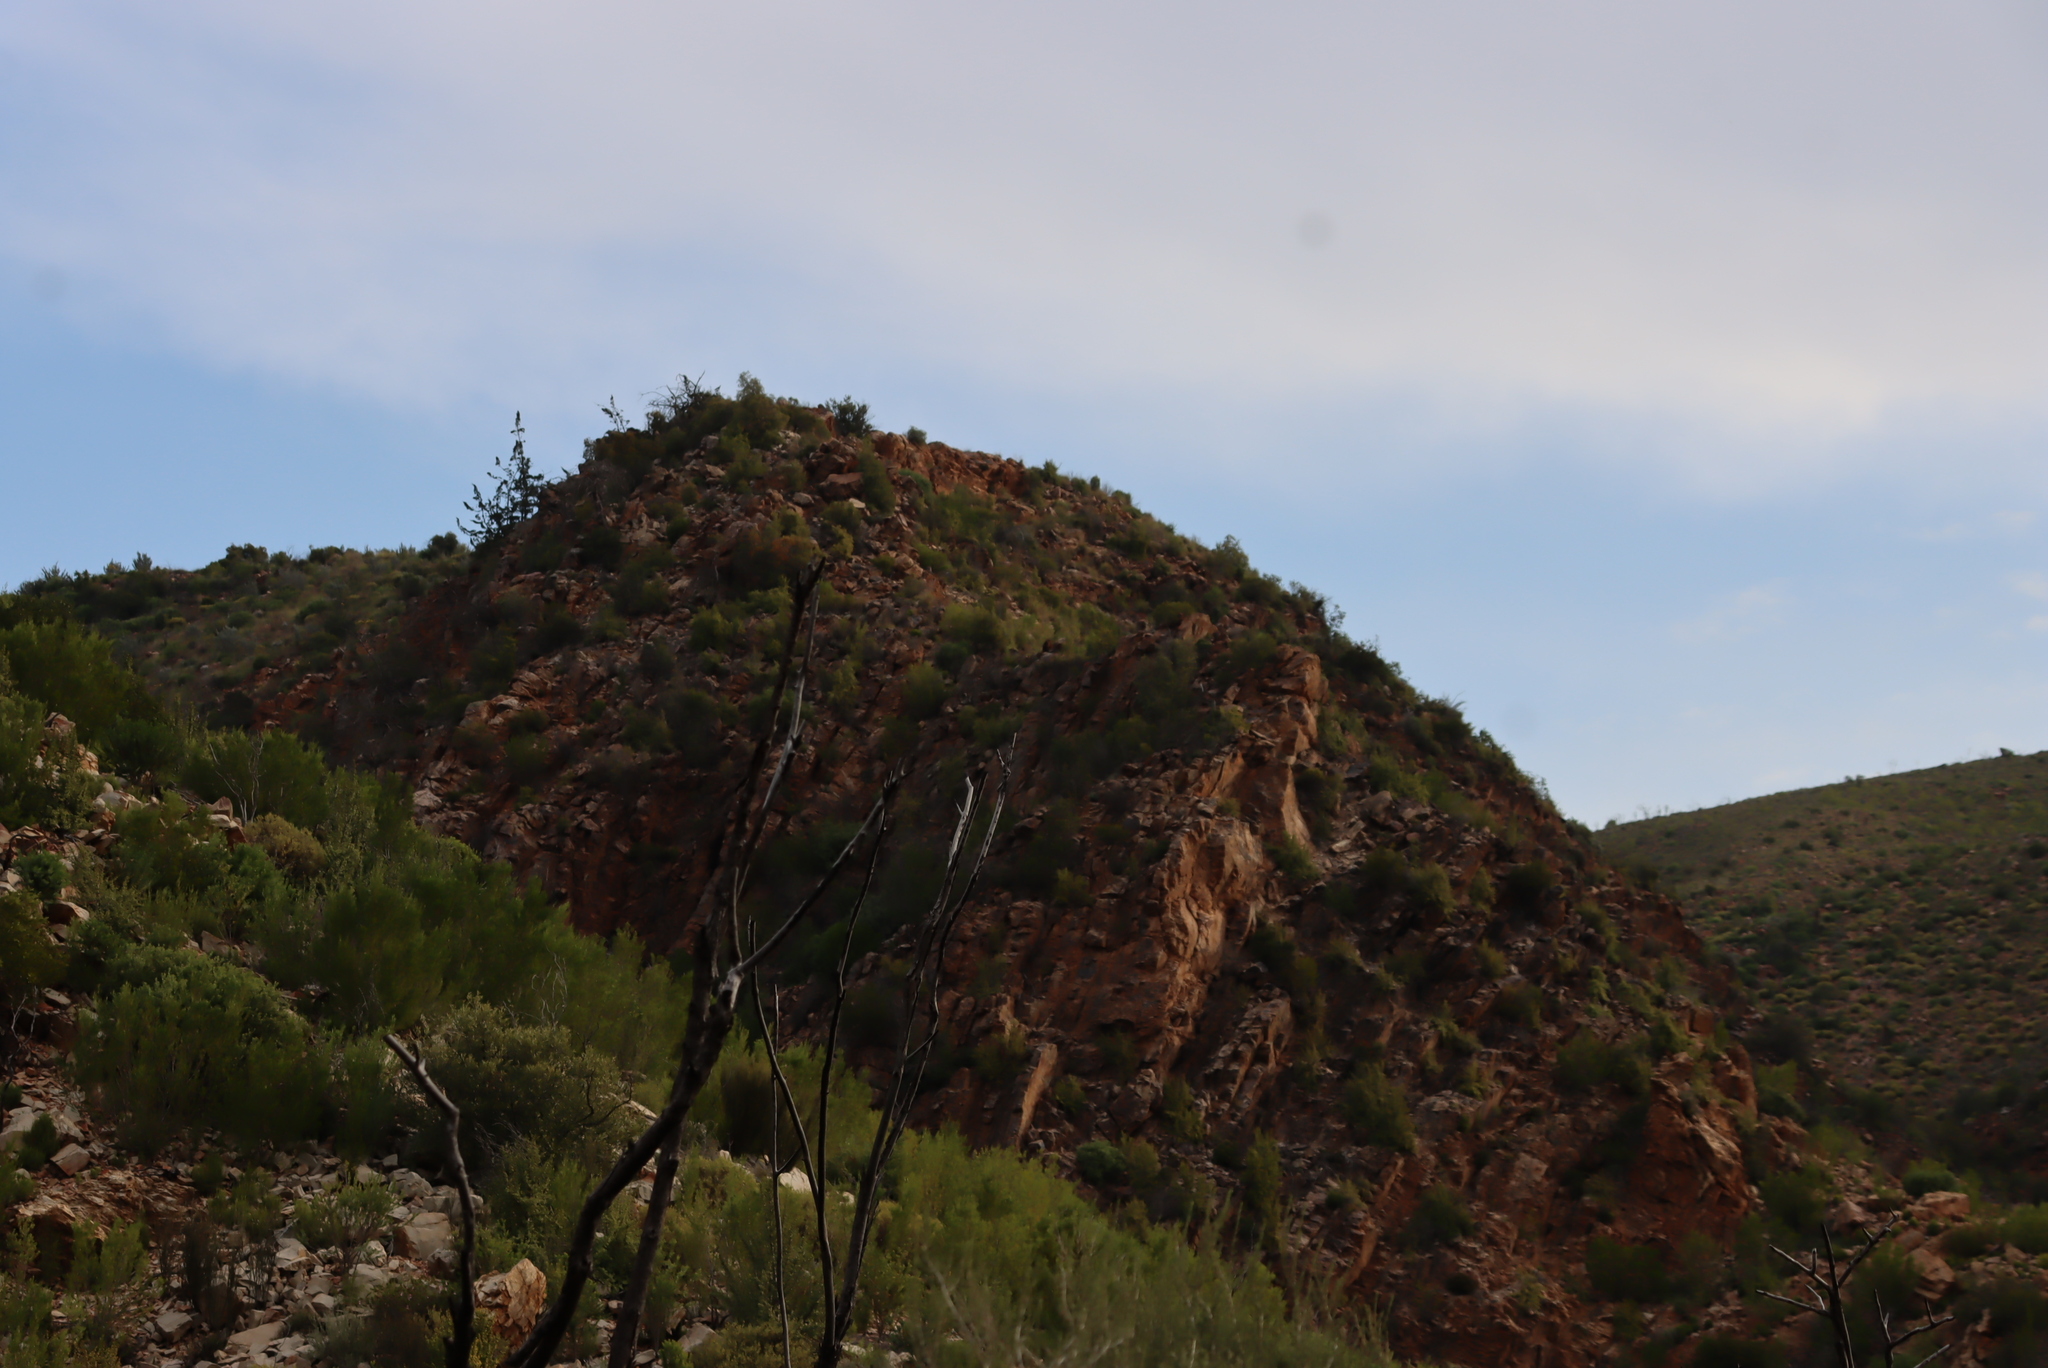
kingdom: Plantae
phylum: Tracheophyta
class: Pinopsida
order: Pinales
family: Cupressaceae
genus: Widdringtonia
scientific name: Widdringtonia schwarzii
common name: Baviaans cedar
